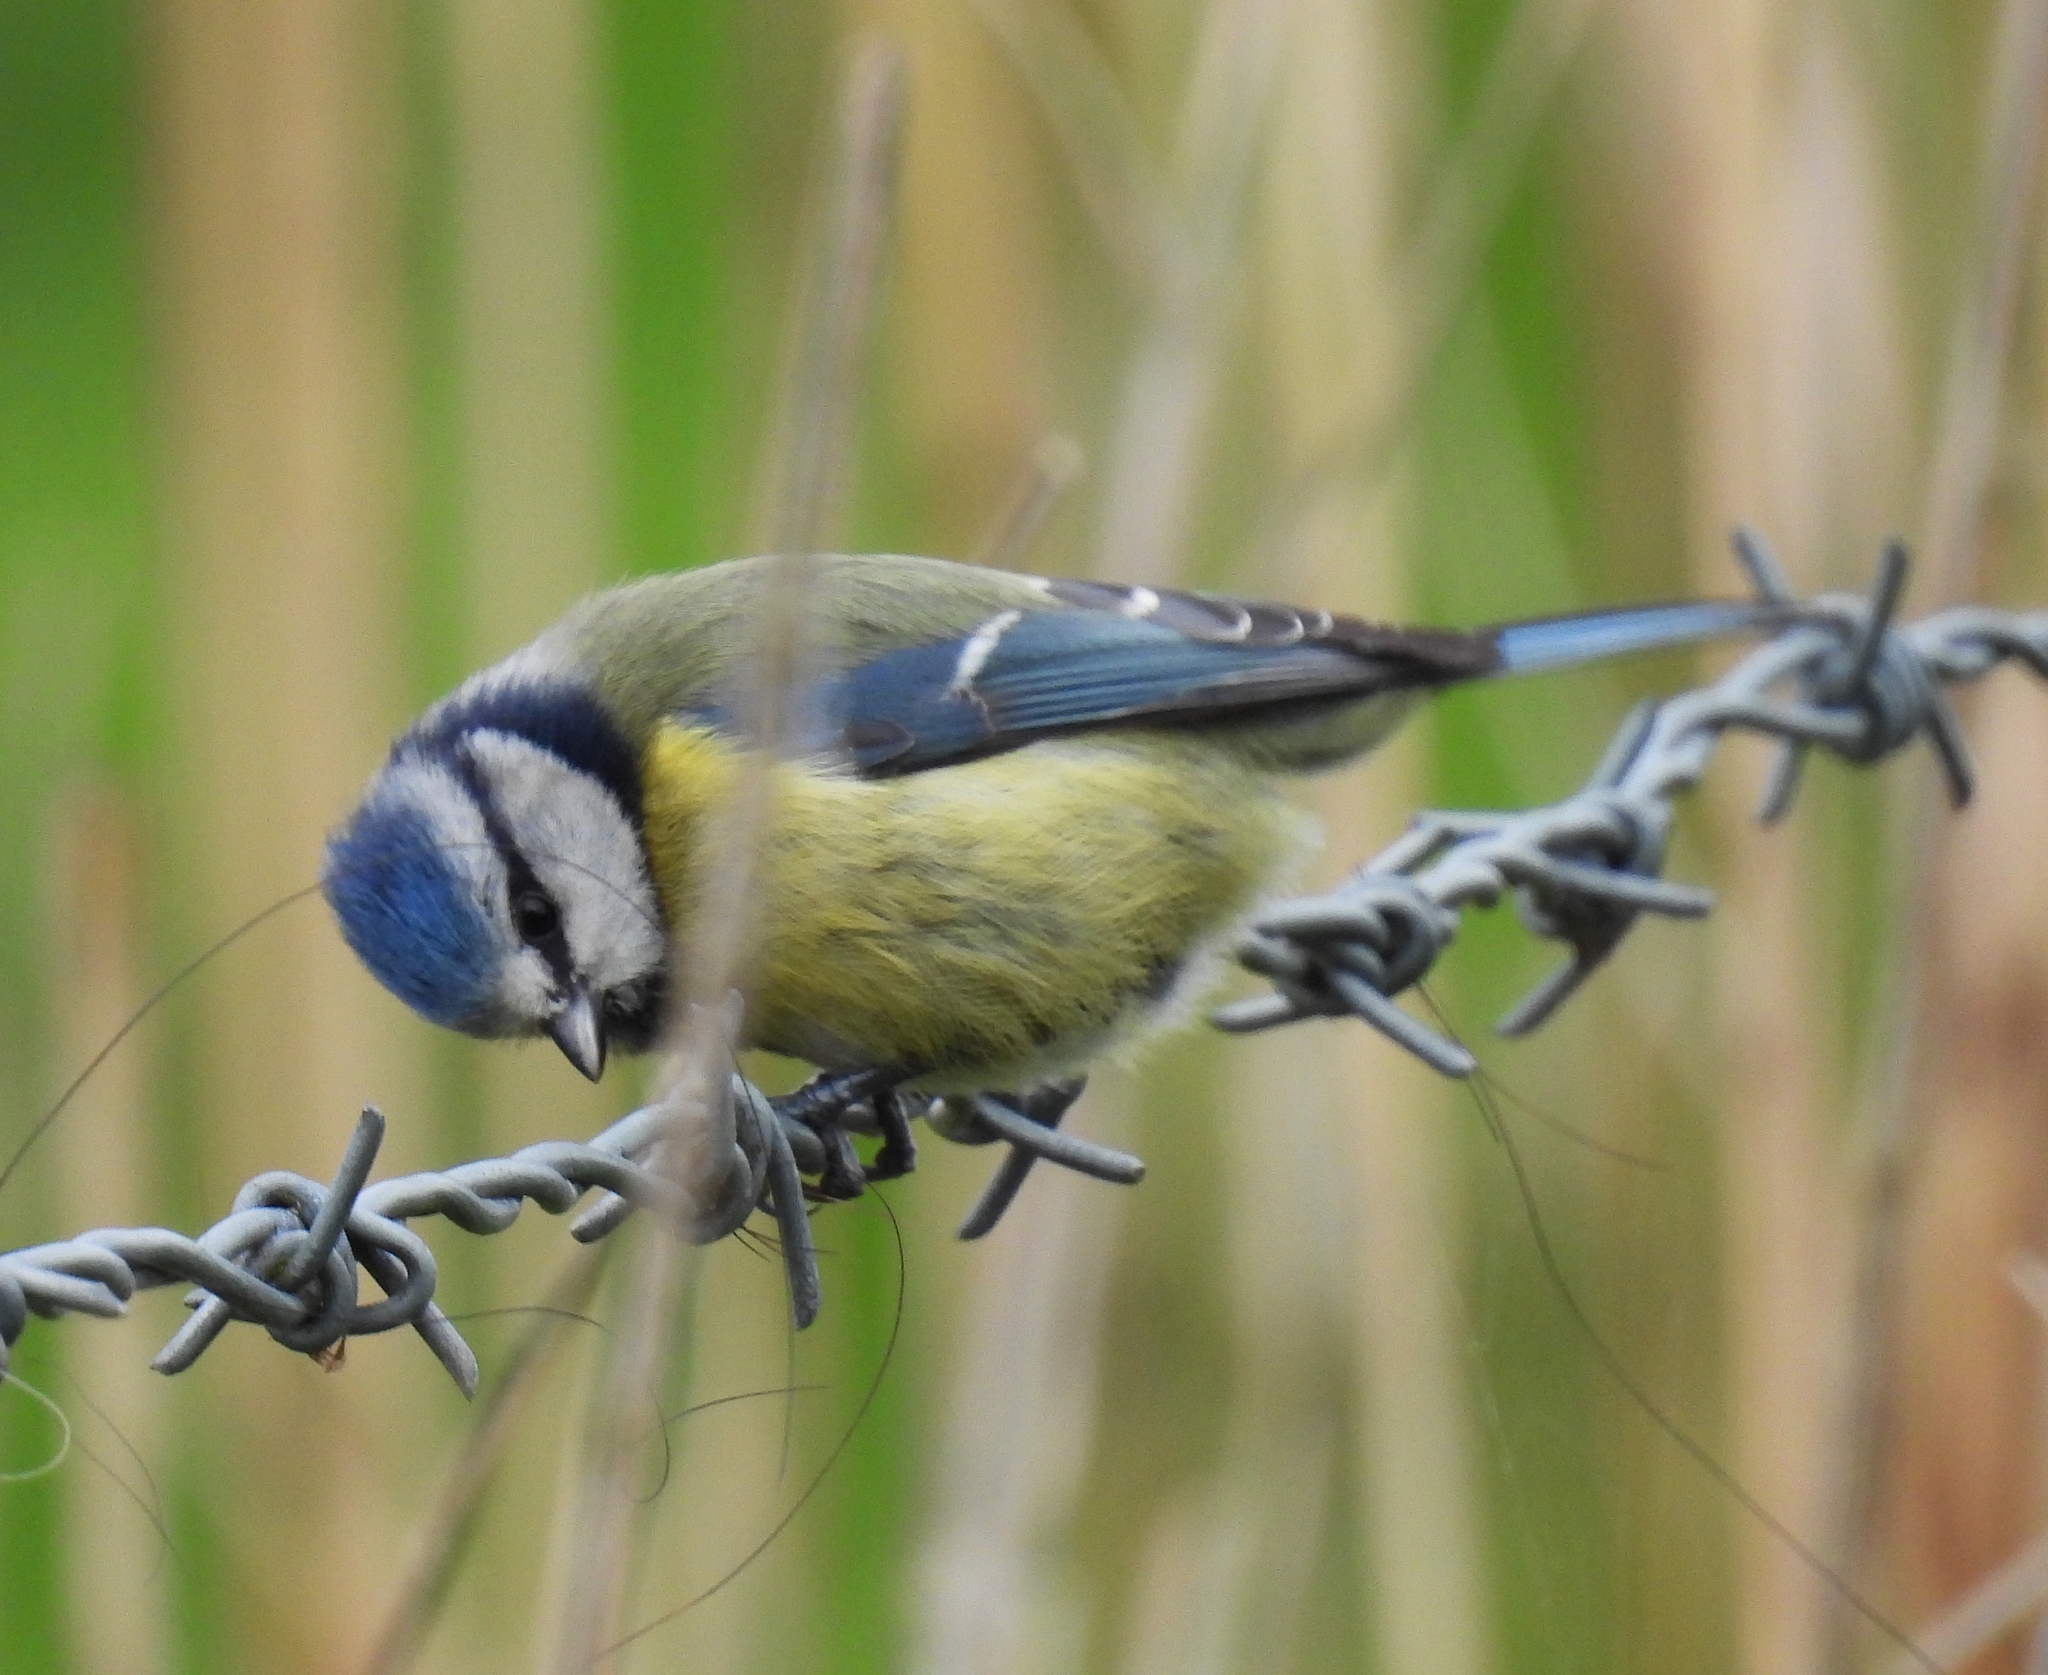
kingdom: Animalia
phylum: Chordata
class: Aves
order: Passeriformes
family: Paridae
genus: Cyanistes
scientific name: Cyanistes caeruleus
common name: Eurasian blue tit
